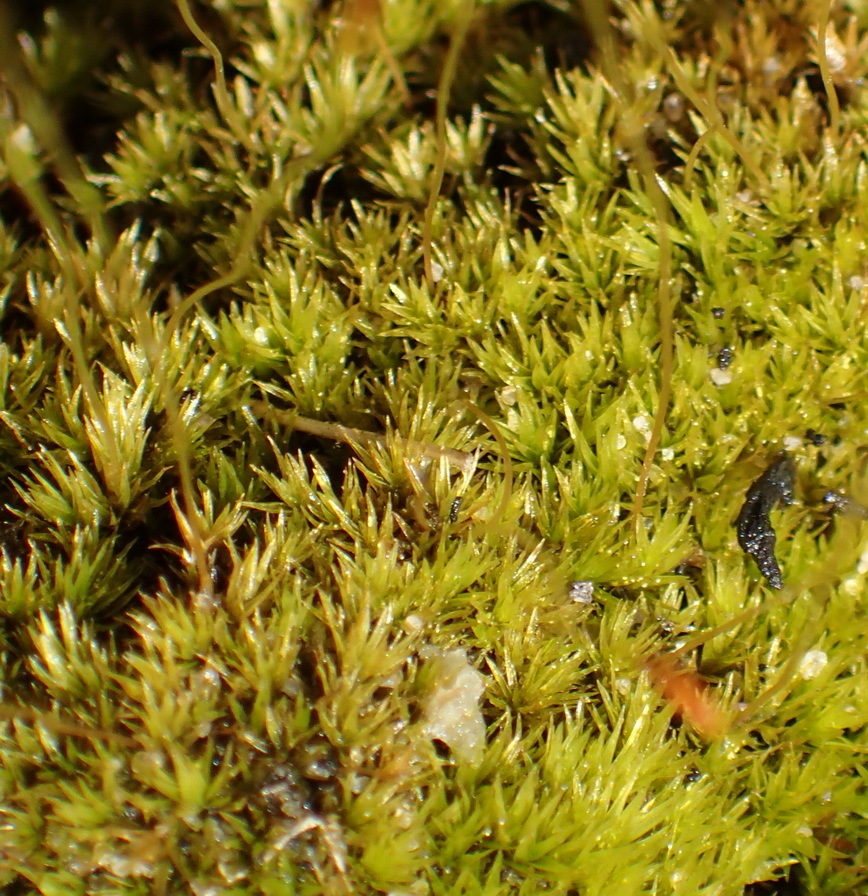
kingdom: Plantae
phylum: Bryophyta
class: Bryopsida
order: Dicranales
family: Ditrichaceae
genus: Ceratodon
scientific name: Ceratodon purpureus
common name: Redshank
